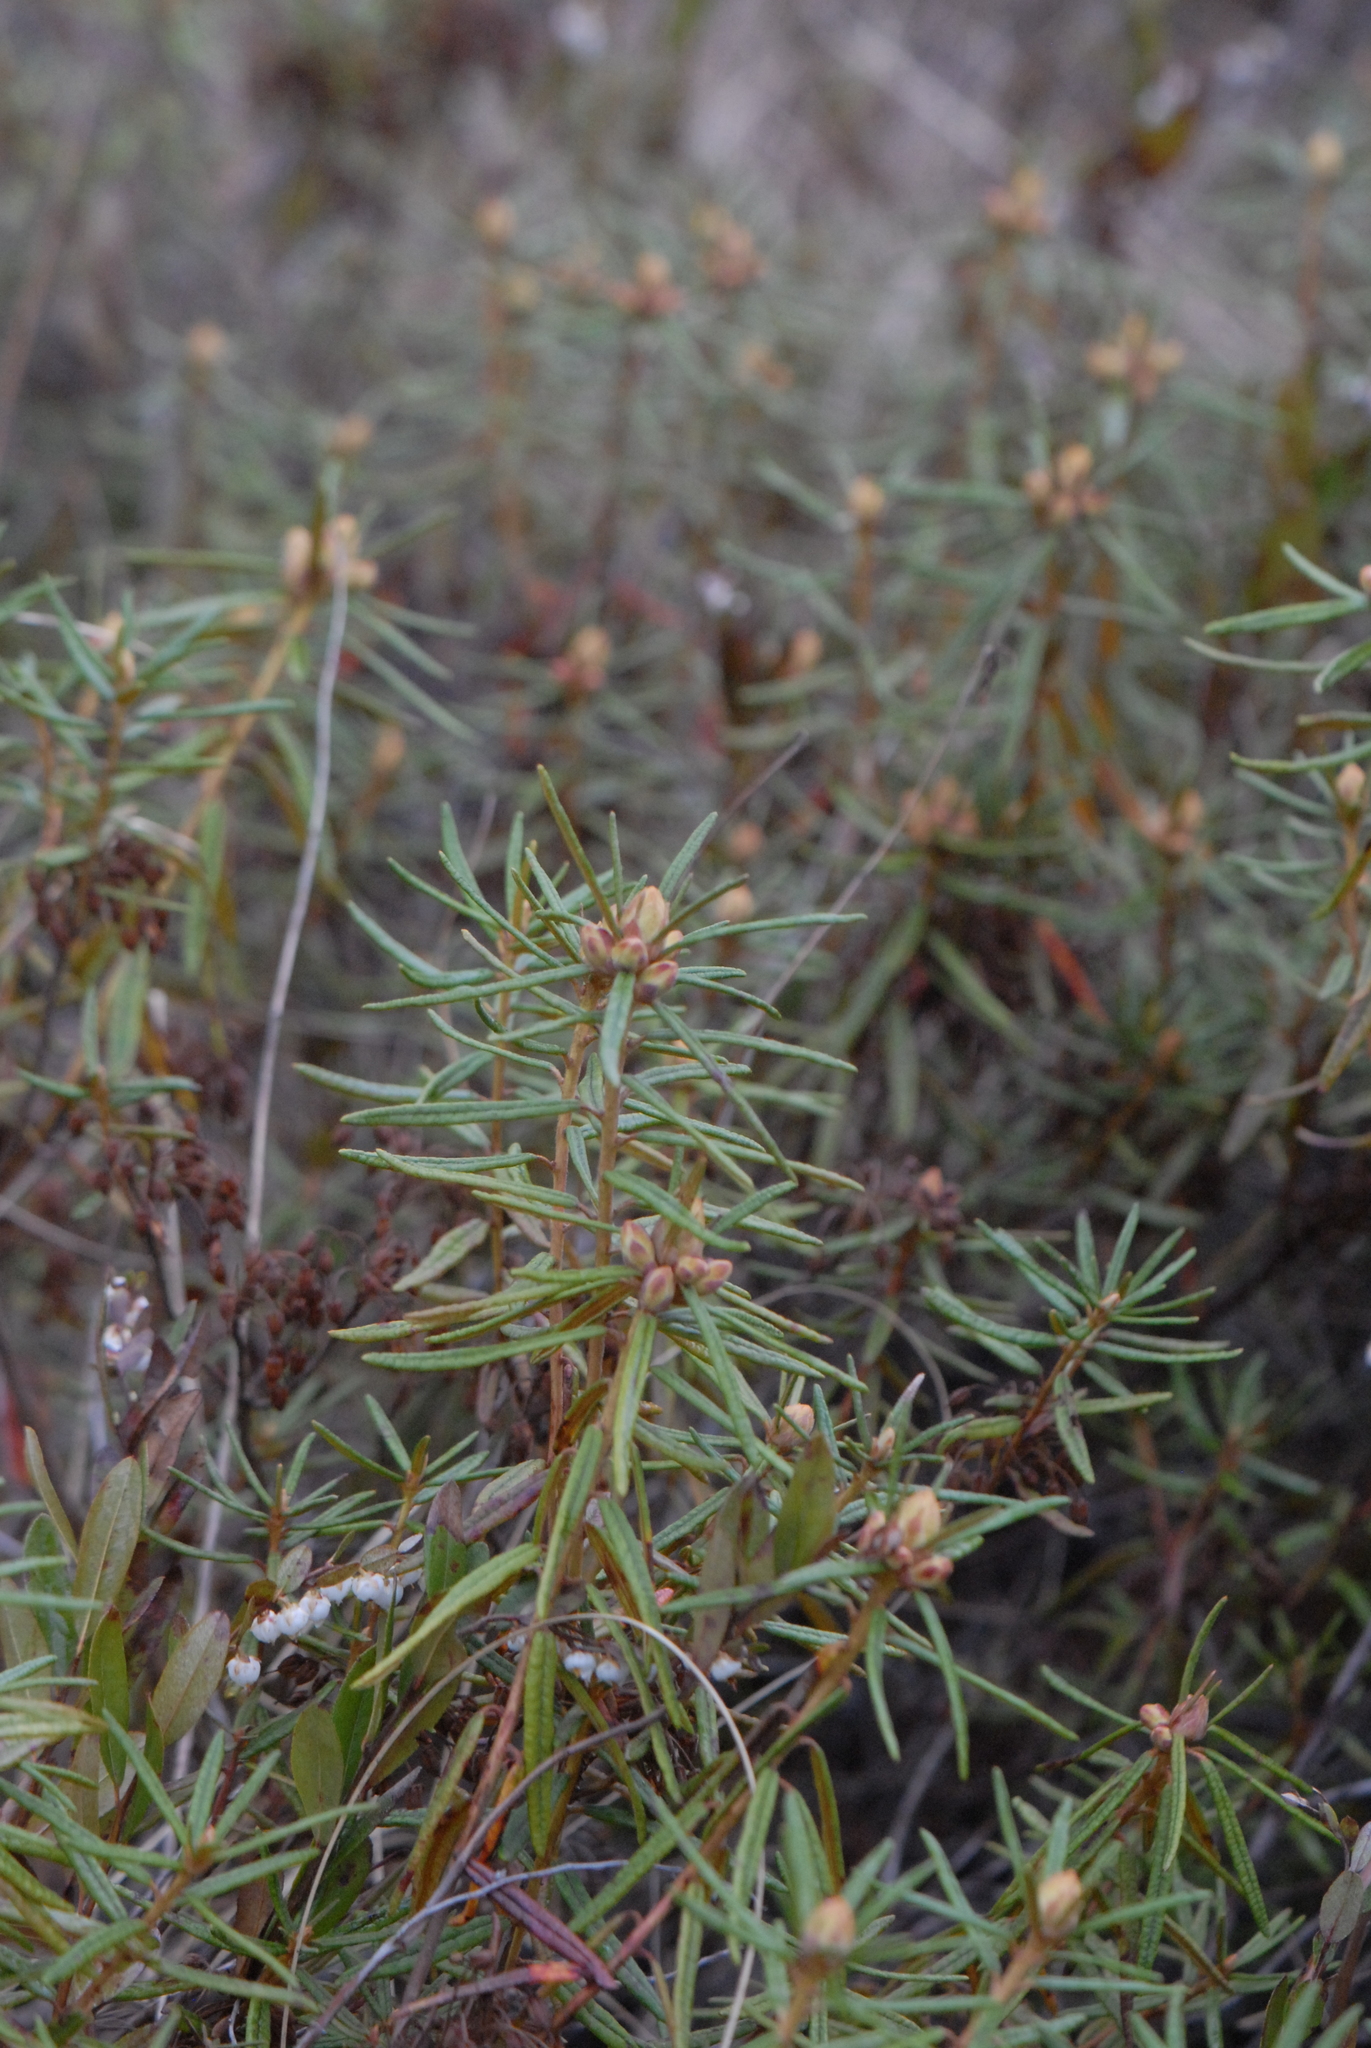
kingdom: Plantae
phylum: Tracheophyta
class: Magnoliopsida
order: Ericales
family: Ericaceae
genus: Rhododendron
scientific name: Rhododendron tomentosum
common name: Marsh labrador tea
